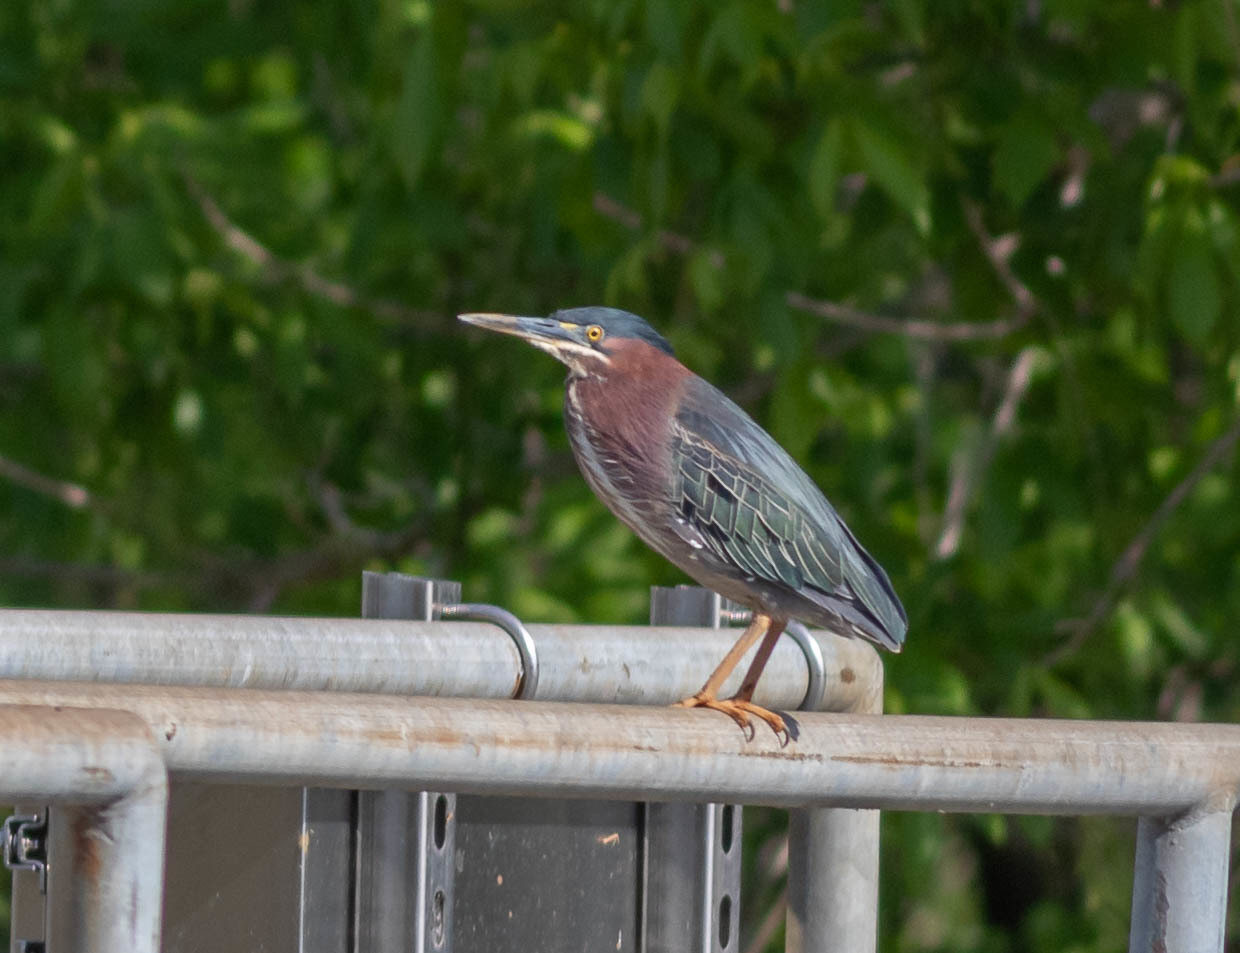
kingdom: Animalia
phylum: Chordata
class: Aves
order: Pelecaniformes
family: Ardeidae
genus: Butorides
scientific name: Butorides virescens
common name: Green heron
